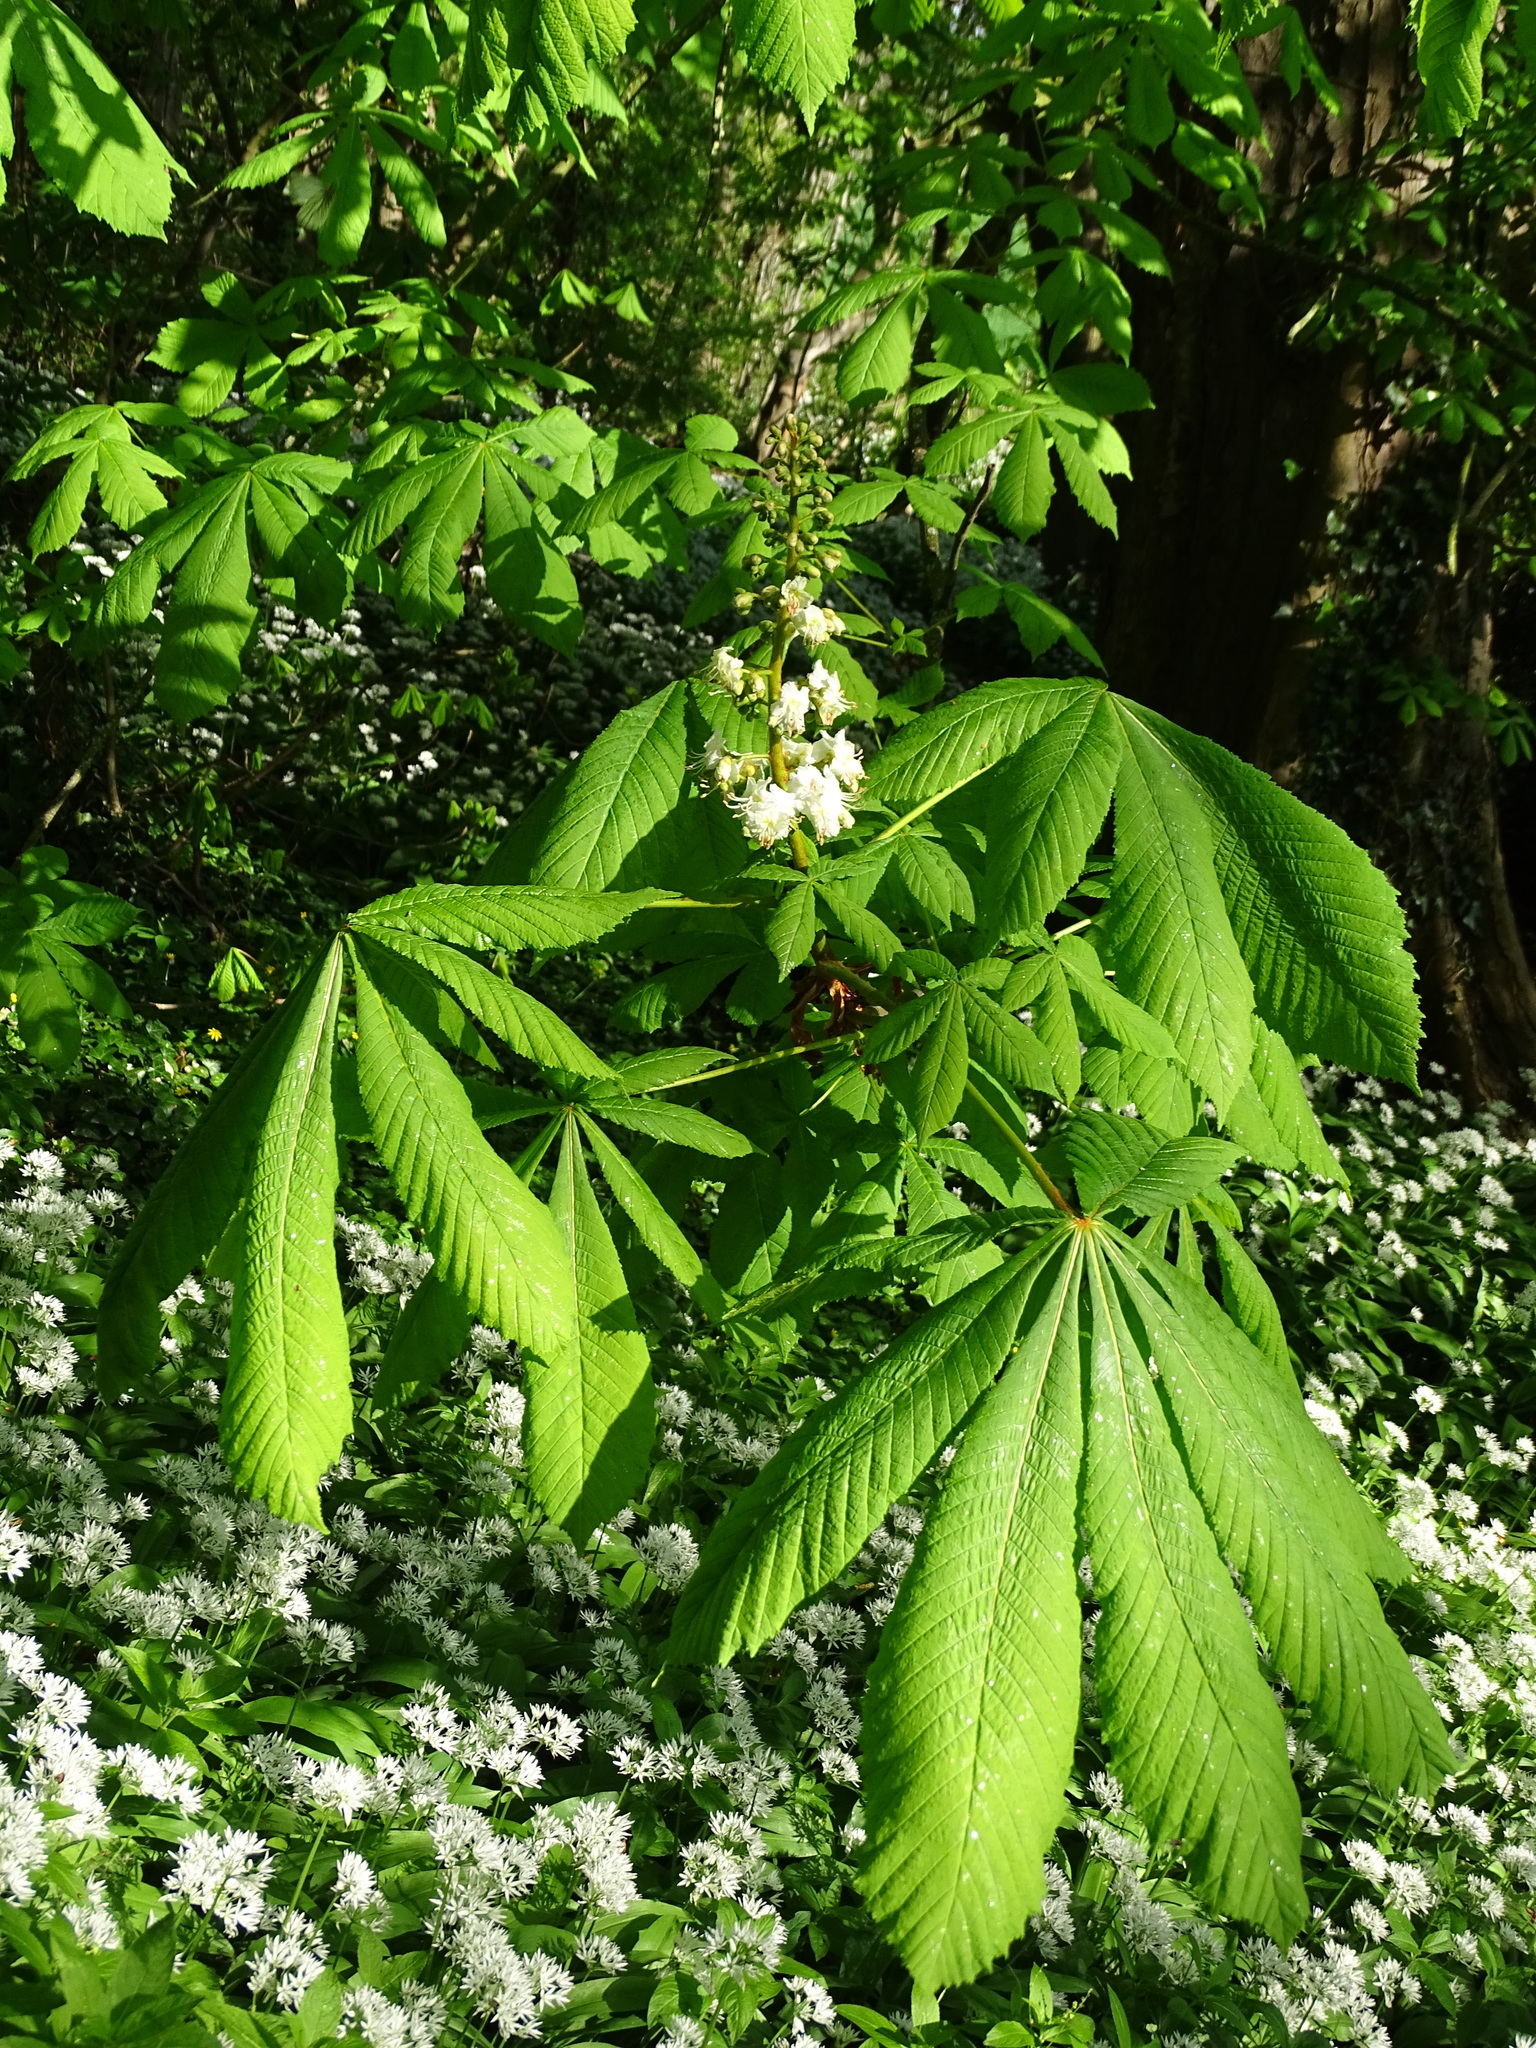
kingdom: Plantae
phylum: Tracheophyta
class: Magnoliopsida
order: Sapindales
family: Sapindaceae
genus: Aesculus
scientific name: Aesculus hippocastanum
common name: Horse-chestnut
